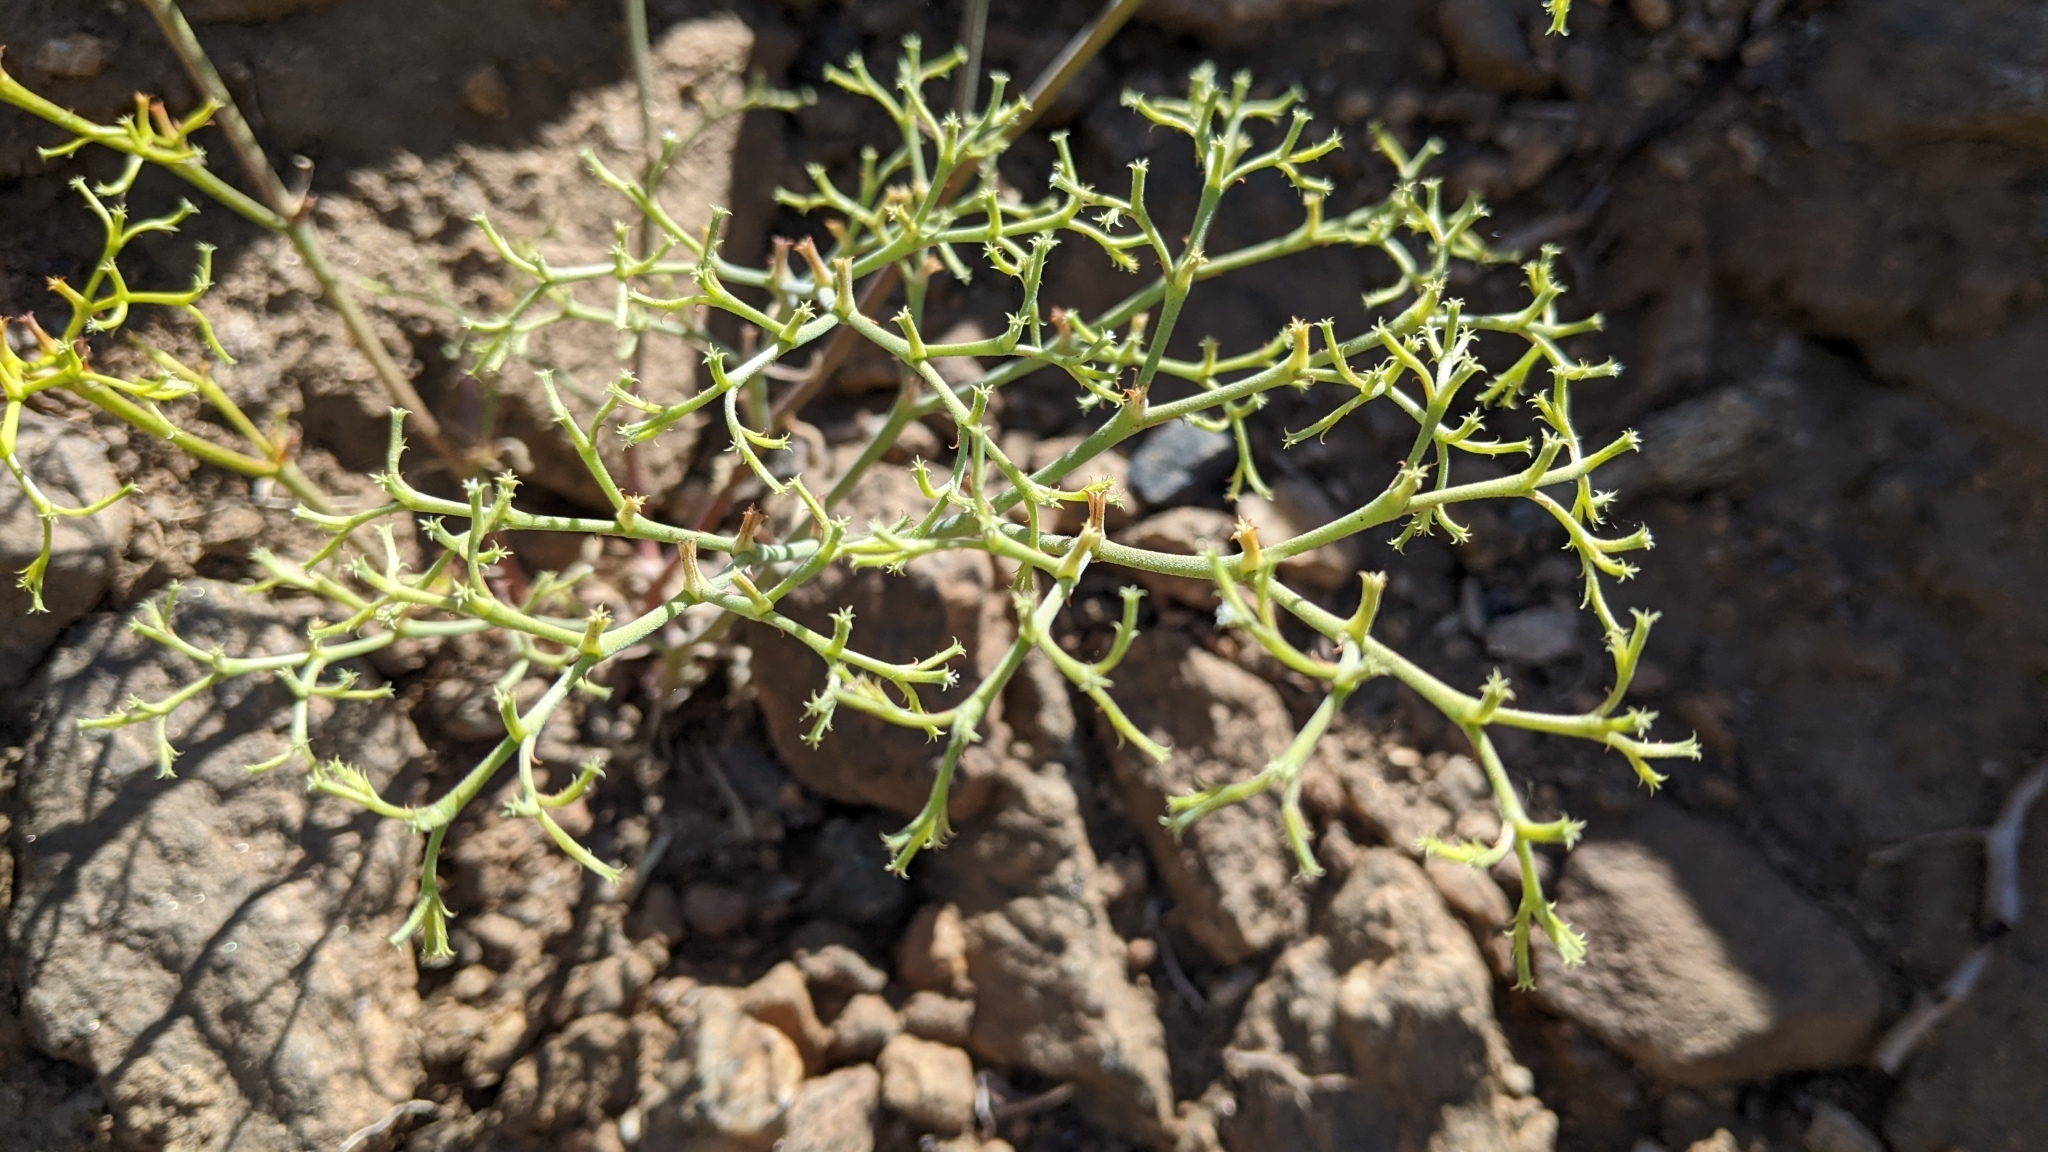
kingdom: Plantae
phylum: Tracheophyta
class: Magnoliopsida
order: Caryophyllales
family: Polygonaceae
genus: Chorizanthe
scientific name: Chorizanthe brevicornu
